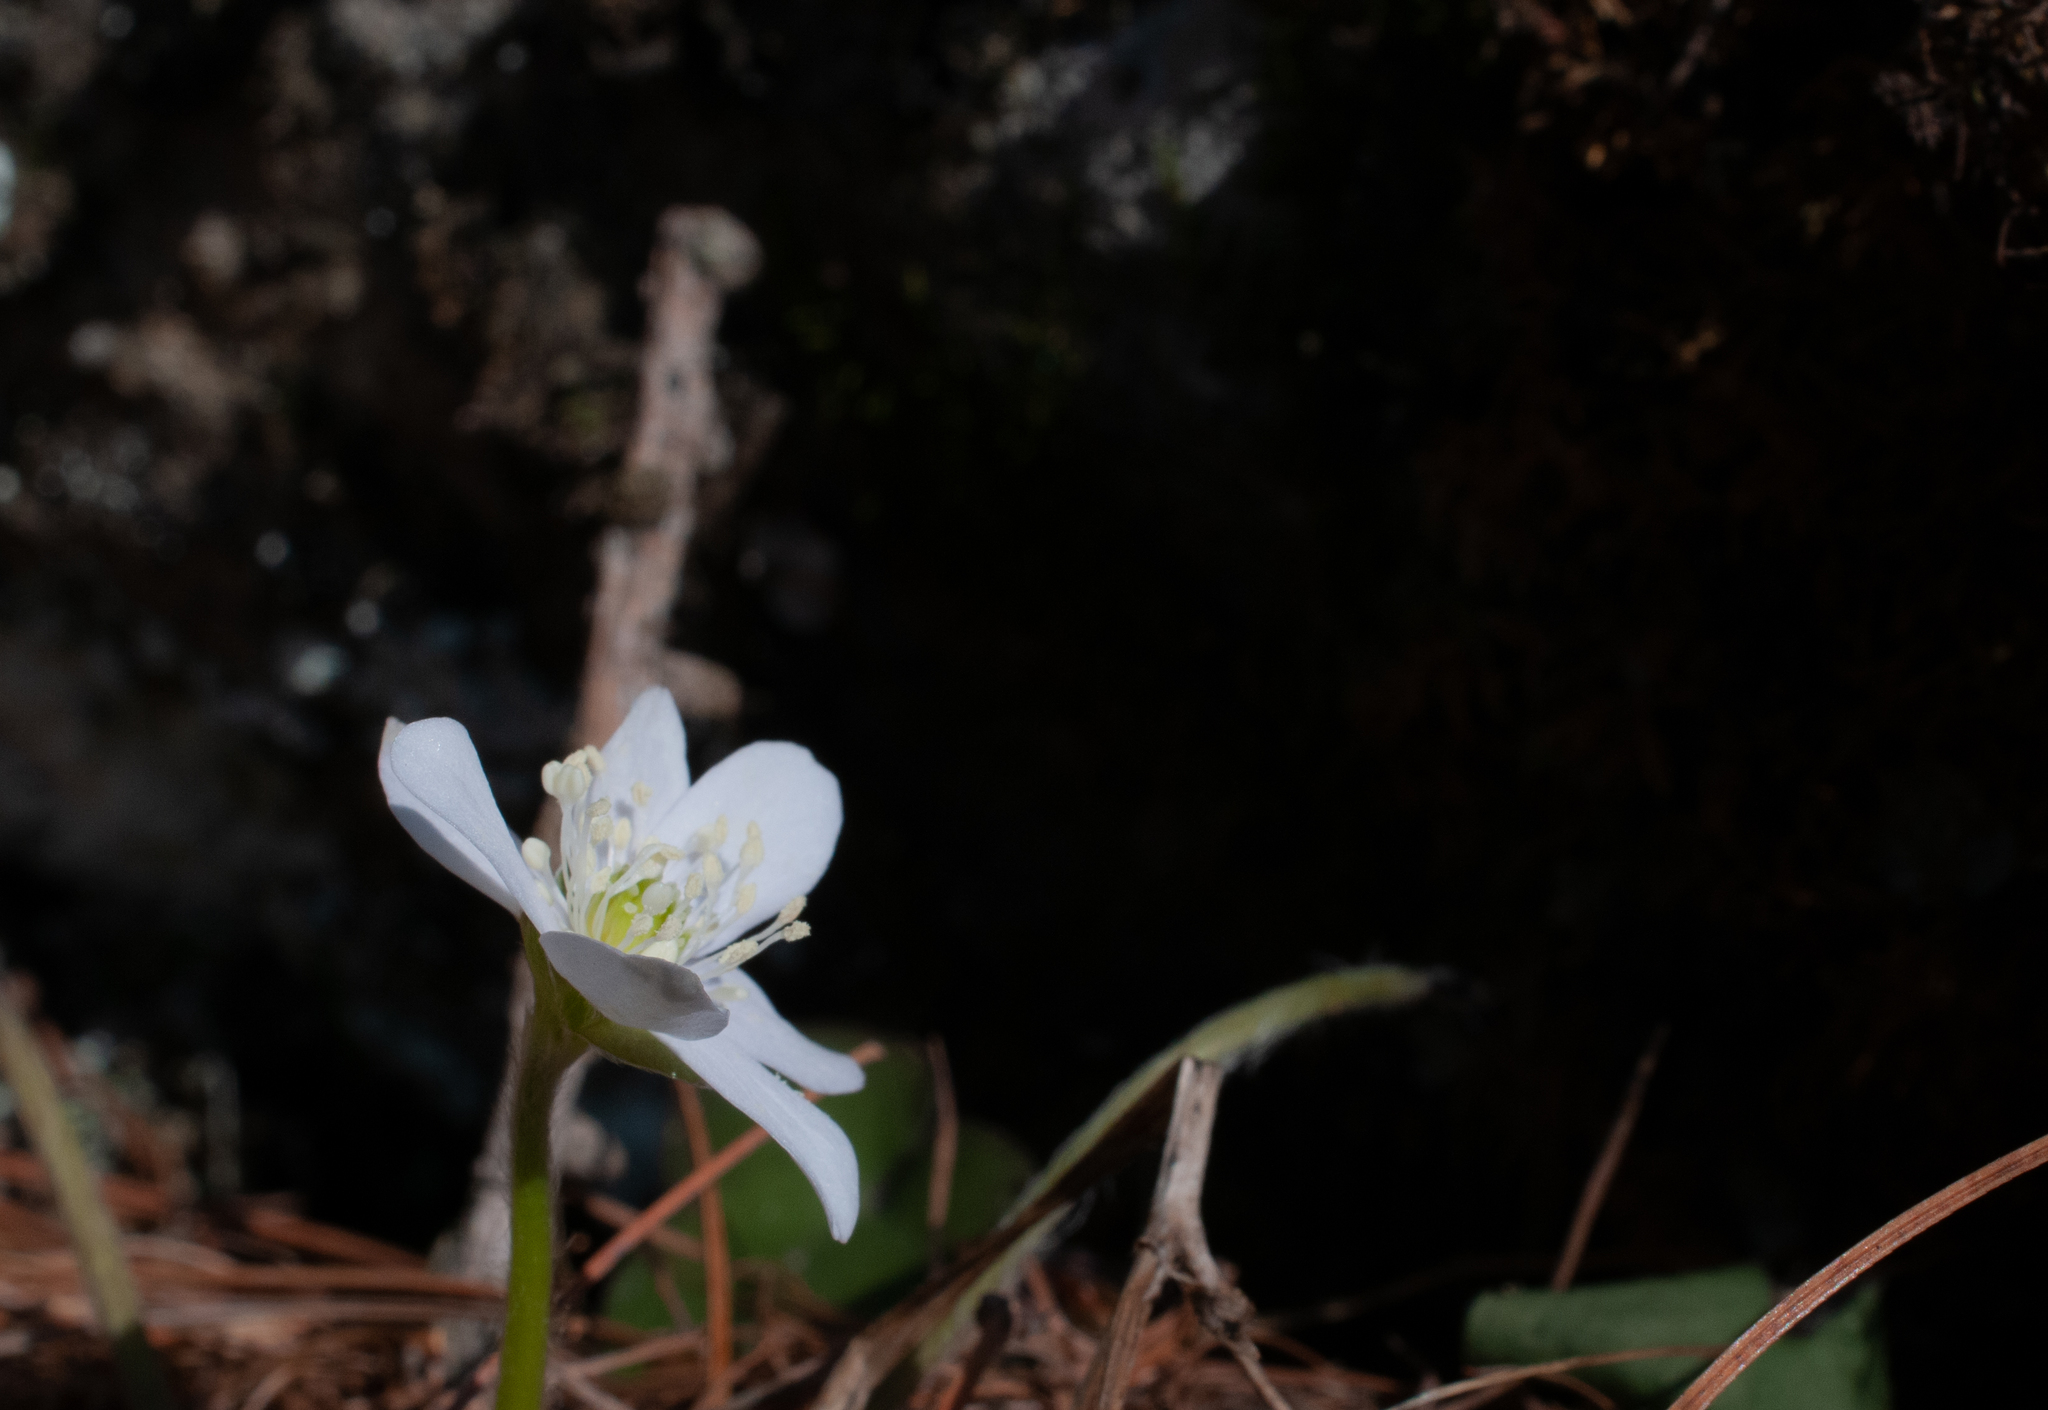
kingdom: Plantae
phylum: Tracheophyta
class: Magnoliopsida
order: Ranunculales
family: Ranunculaceae
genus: Hepatica
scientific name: Hepatica nobilis
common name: Liverleaf
